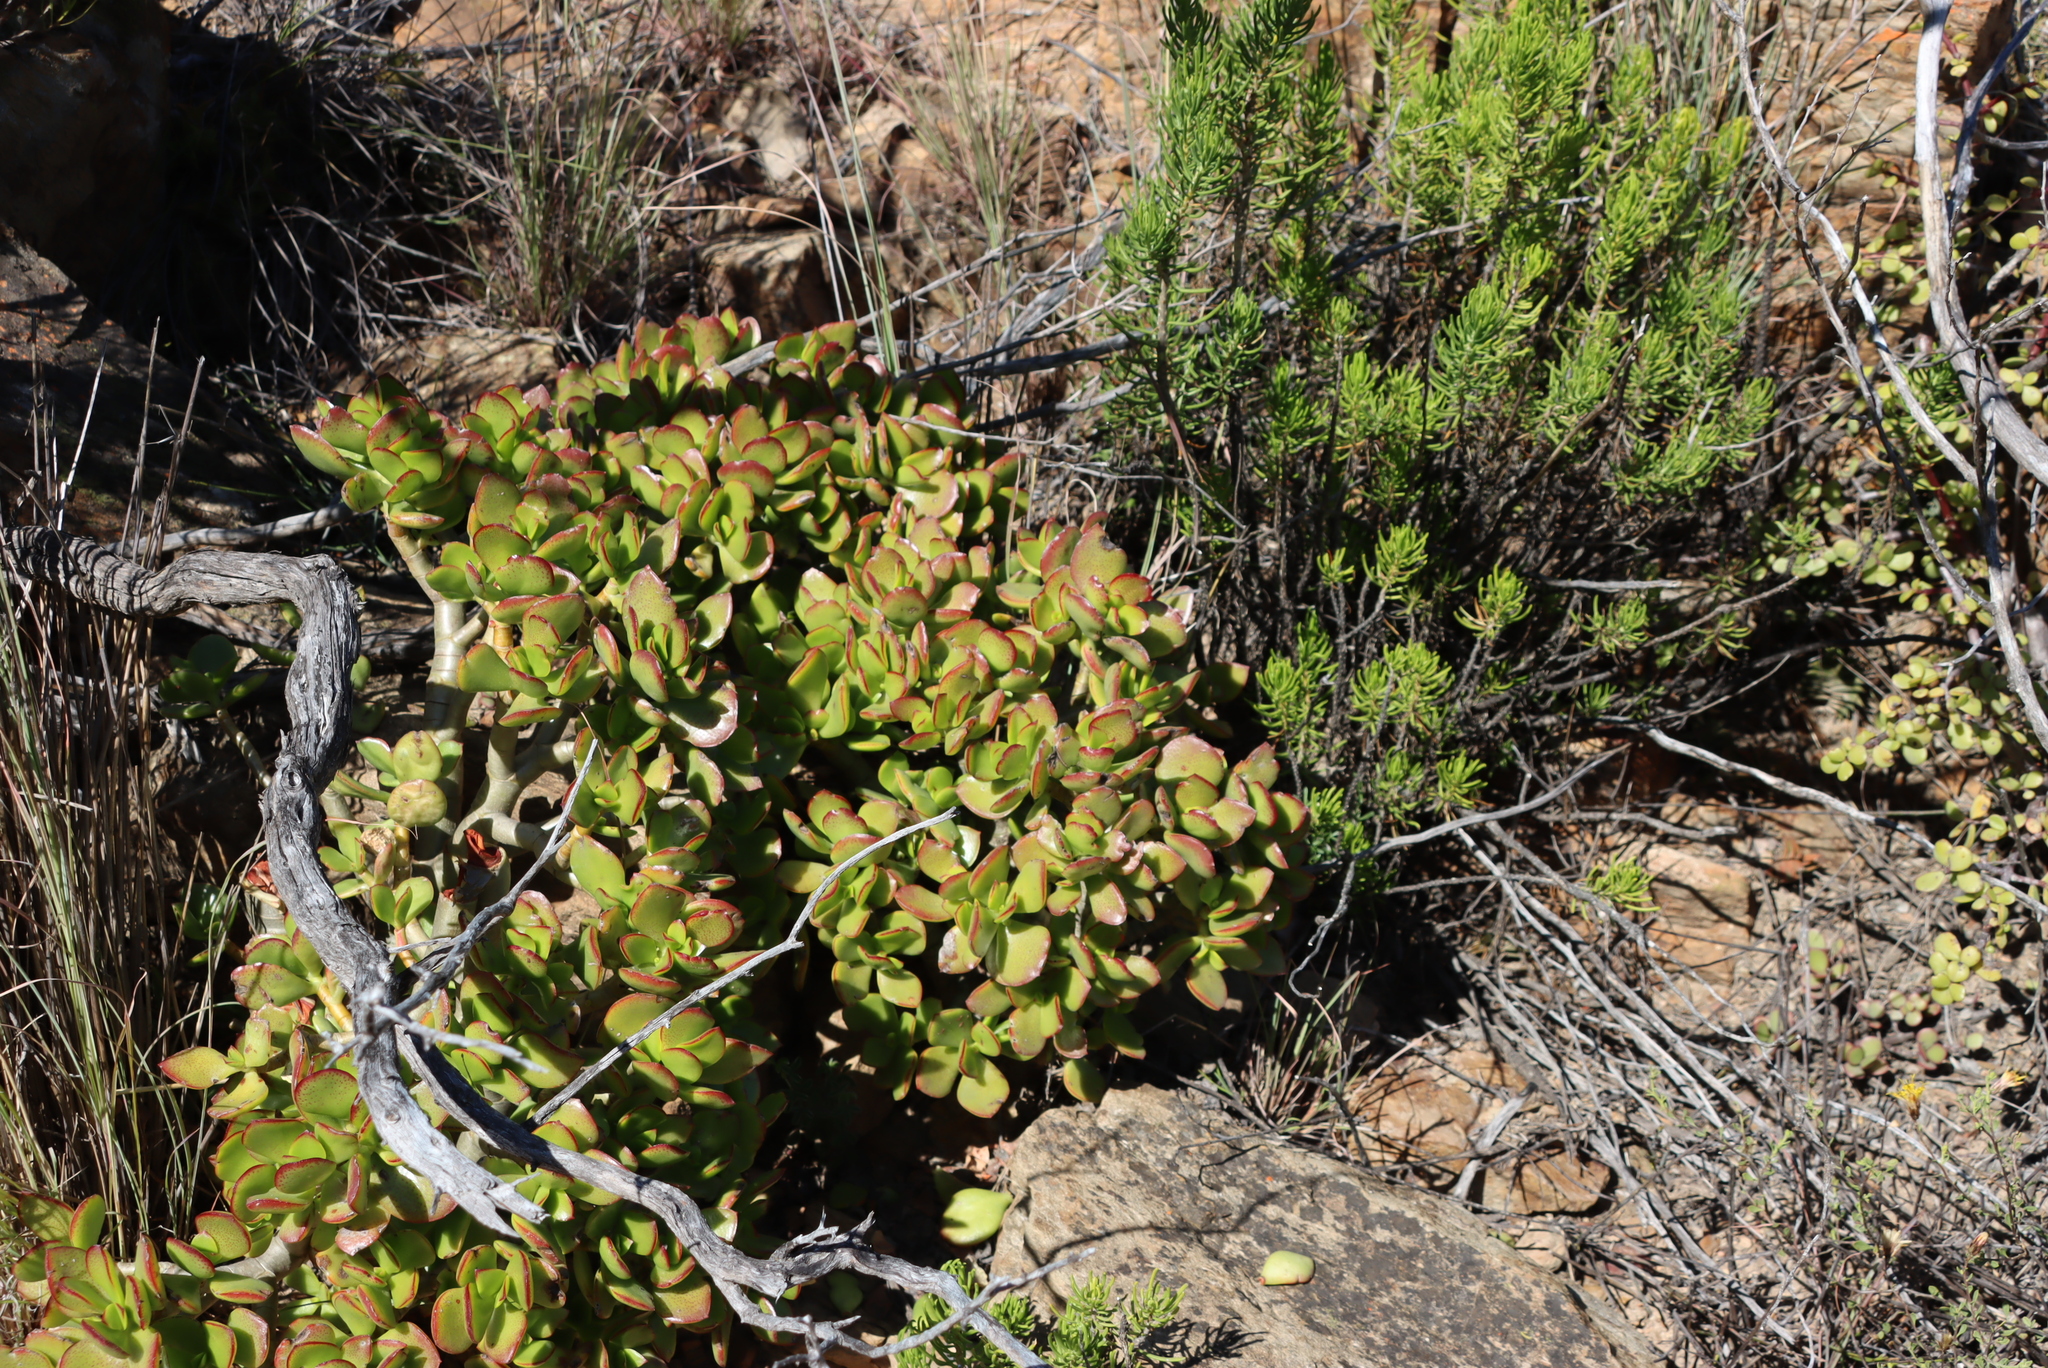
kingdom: Plantae
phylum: Tracheophyta
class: Magnoliopsida
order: Saxifragales
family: Crassulaceae
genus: Crassula
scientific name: Crassula ovata
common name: Jade plant
